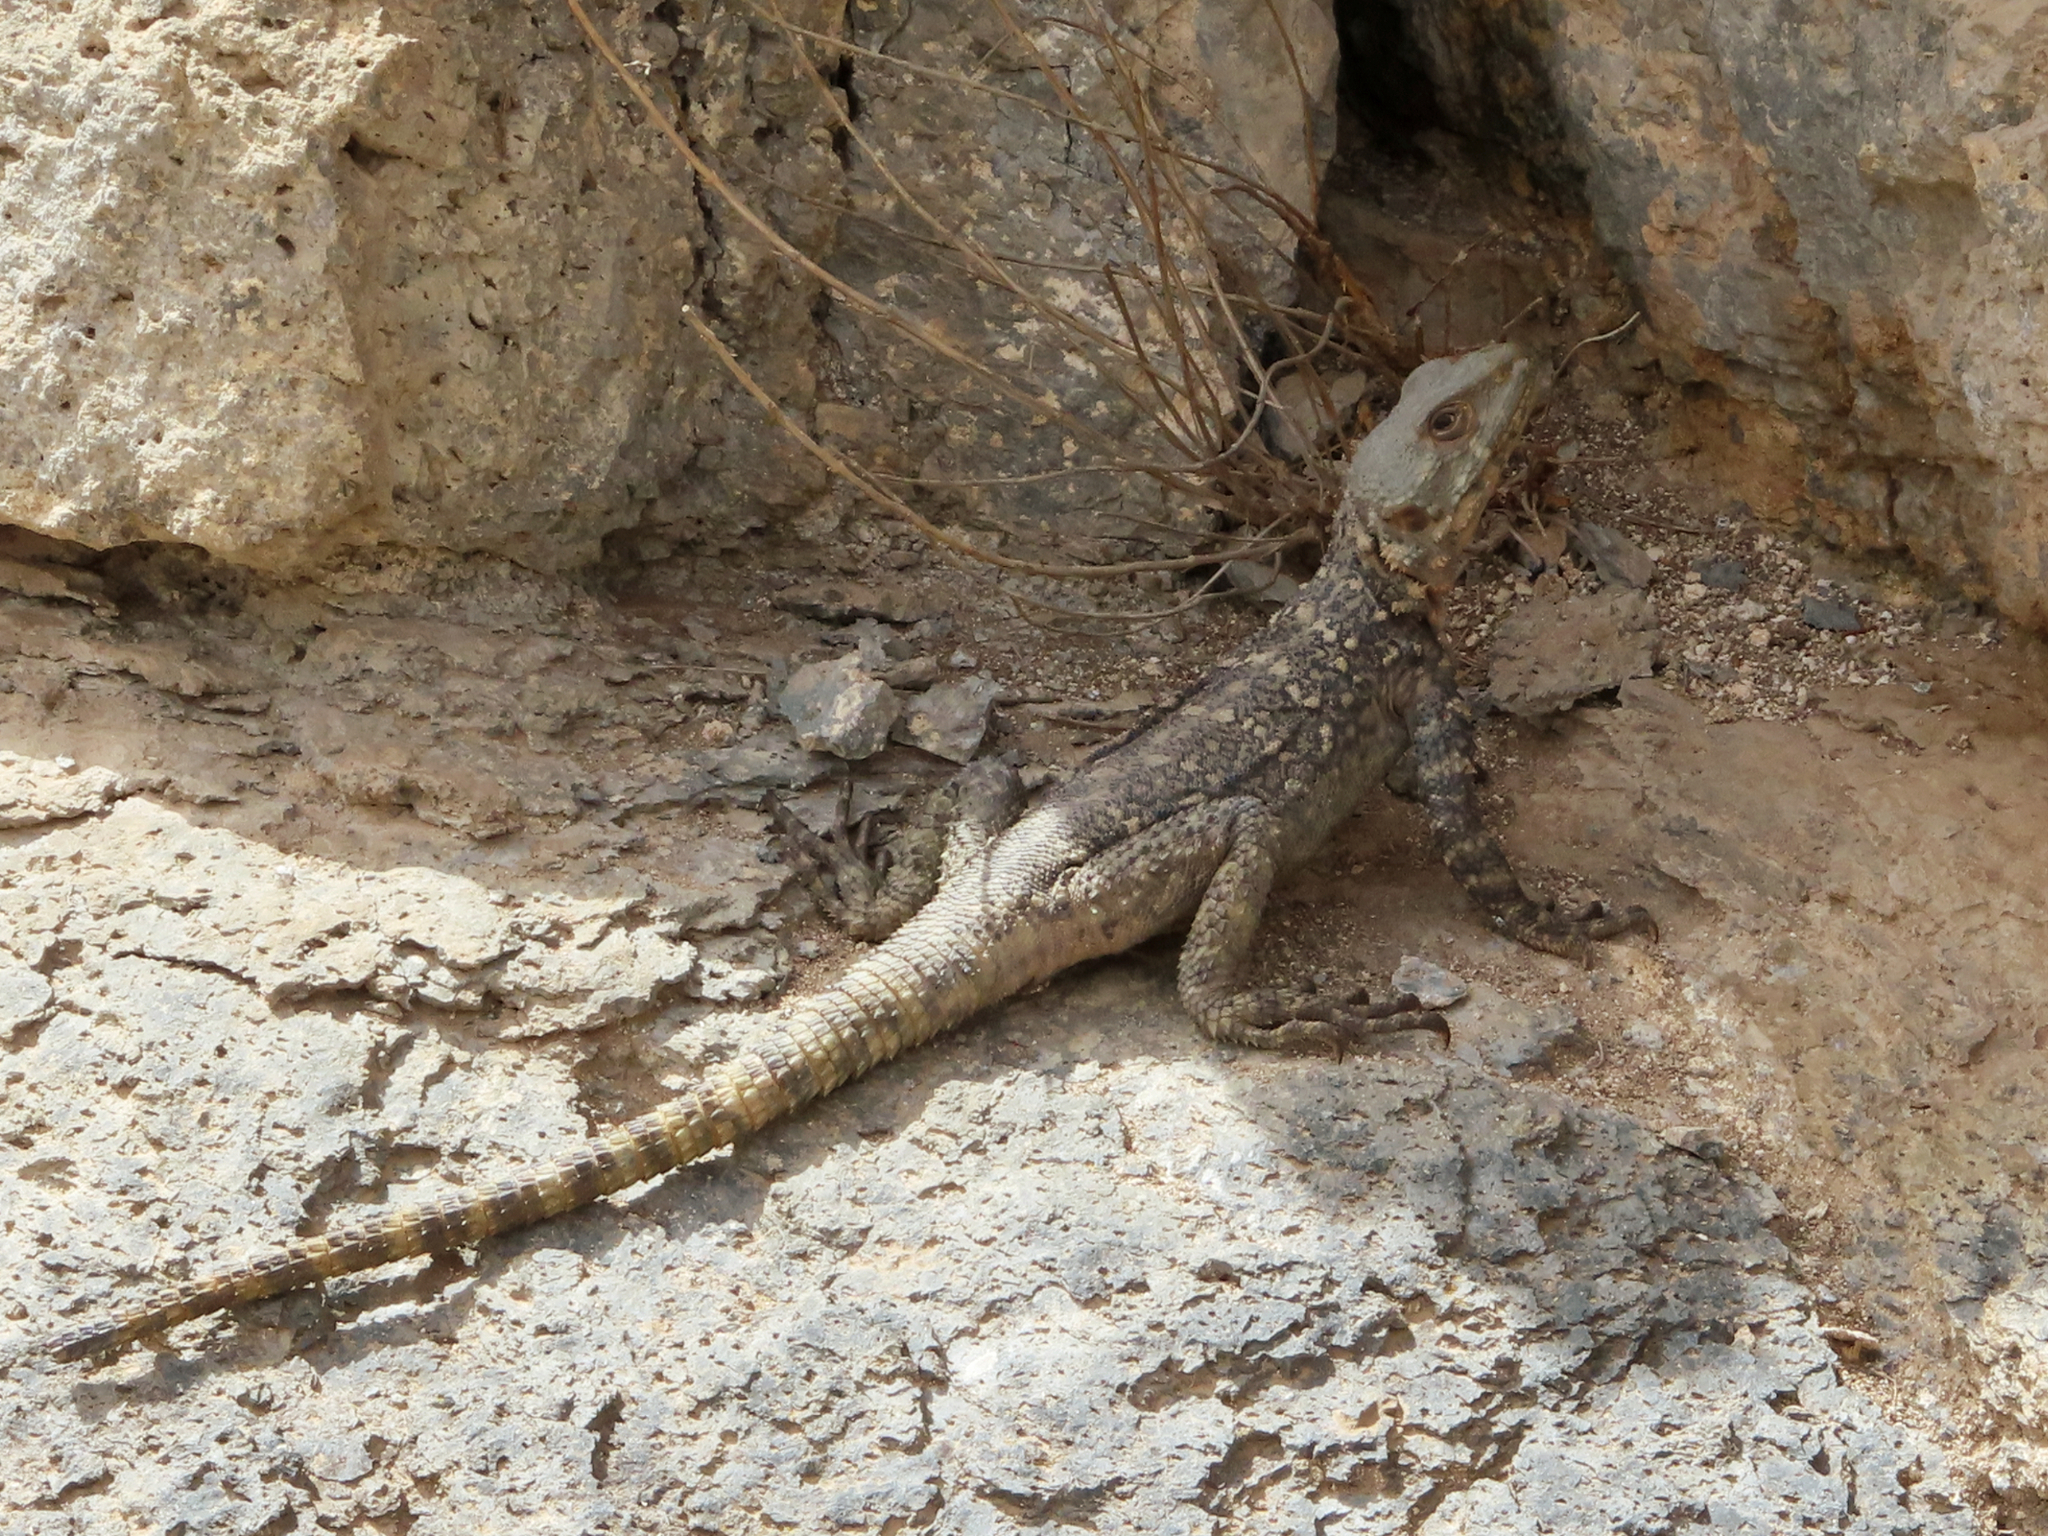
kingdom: Animalia
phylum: Chordata
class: Squamata
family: Agamidae
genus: Paralaudakia
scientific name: Paralaudakia caucasia
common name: Caucasian agama
